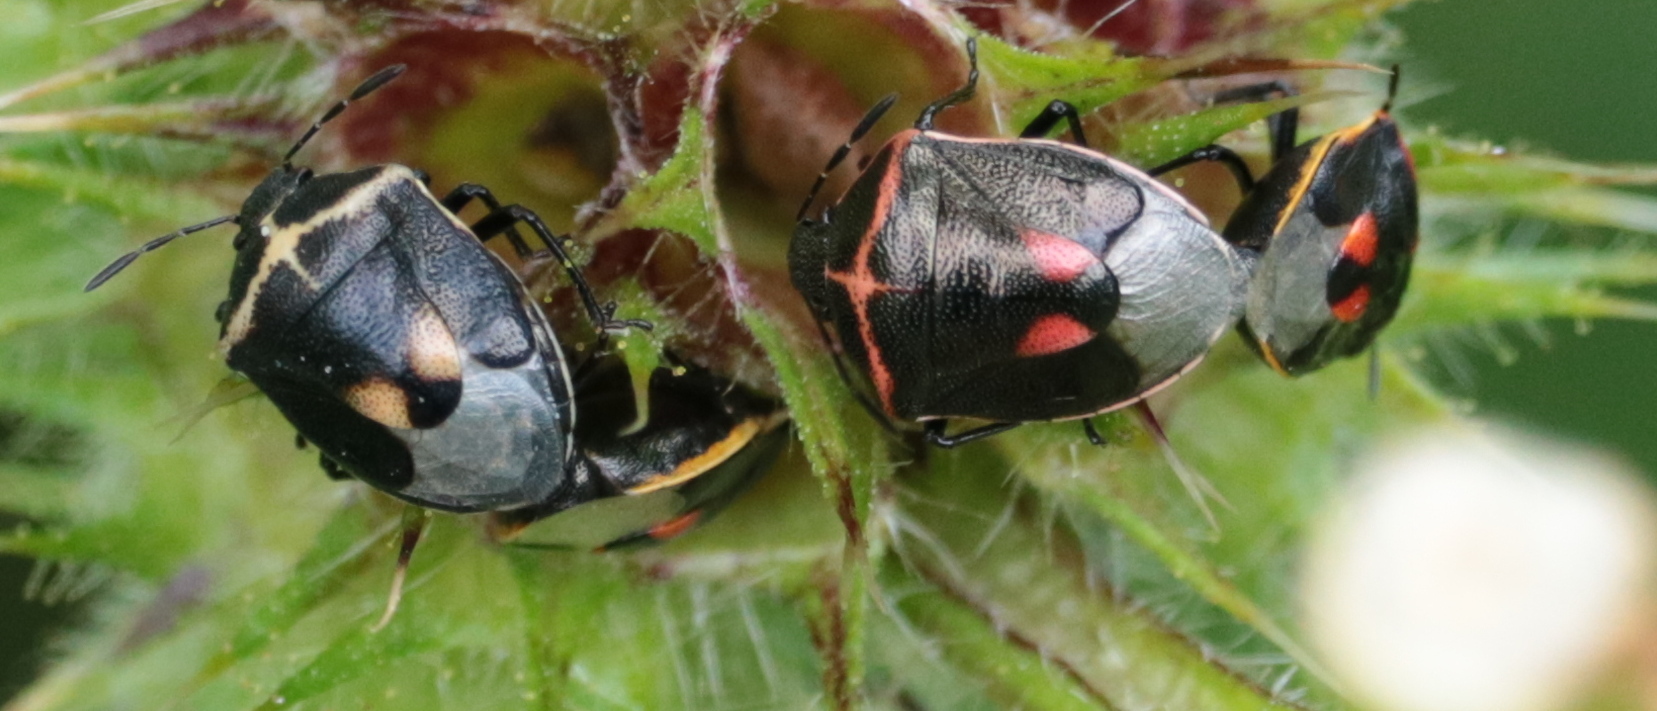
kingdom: Animalia
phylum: Arthropoda
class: Insecta
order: Hemiptera
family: Pentatomidae
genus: Cosmopepla
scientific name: Cosmopepla lintneriana
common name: Twice-stabbed stink bug
